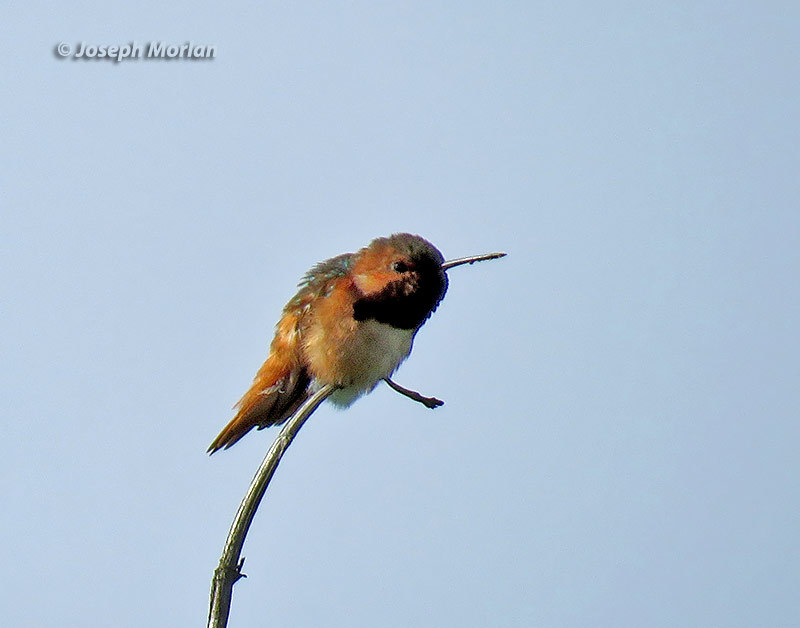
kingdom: Animalia
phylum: Chordata
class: Aves
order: Apodiformes
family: Trochilidae
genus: Selasphorus
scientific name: Selasphorus sasin
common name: Allen's hummingbird
